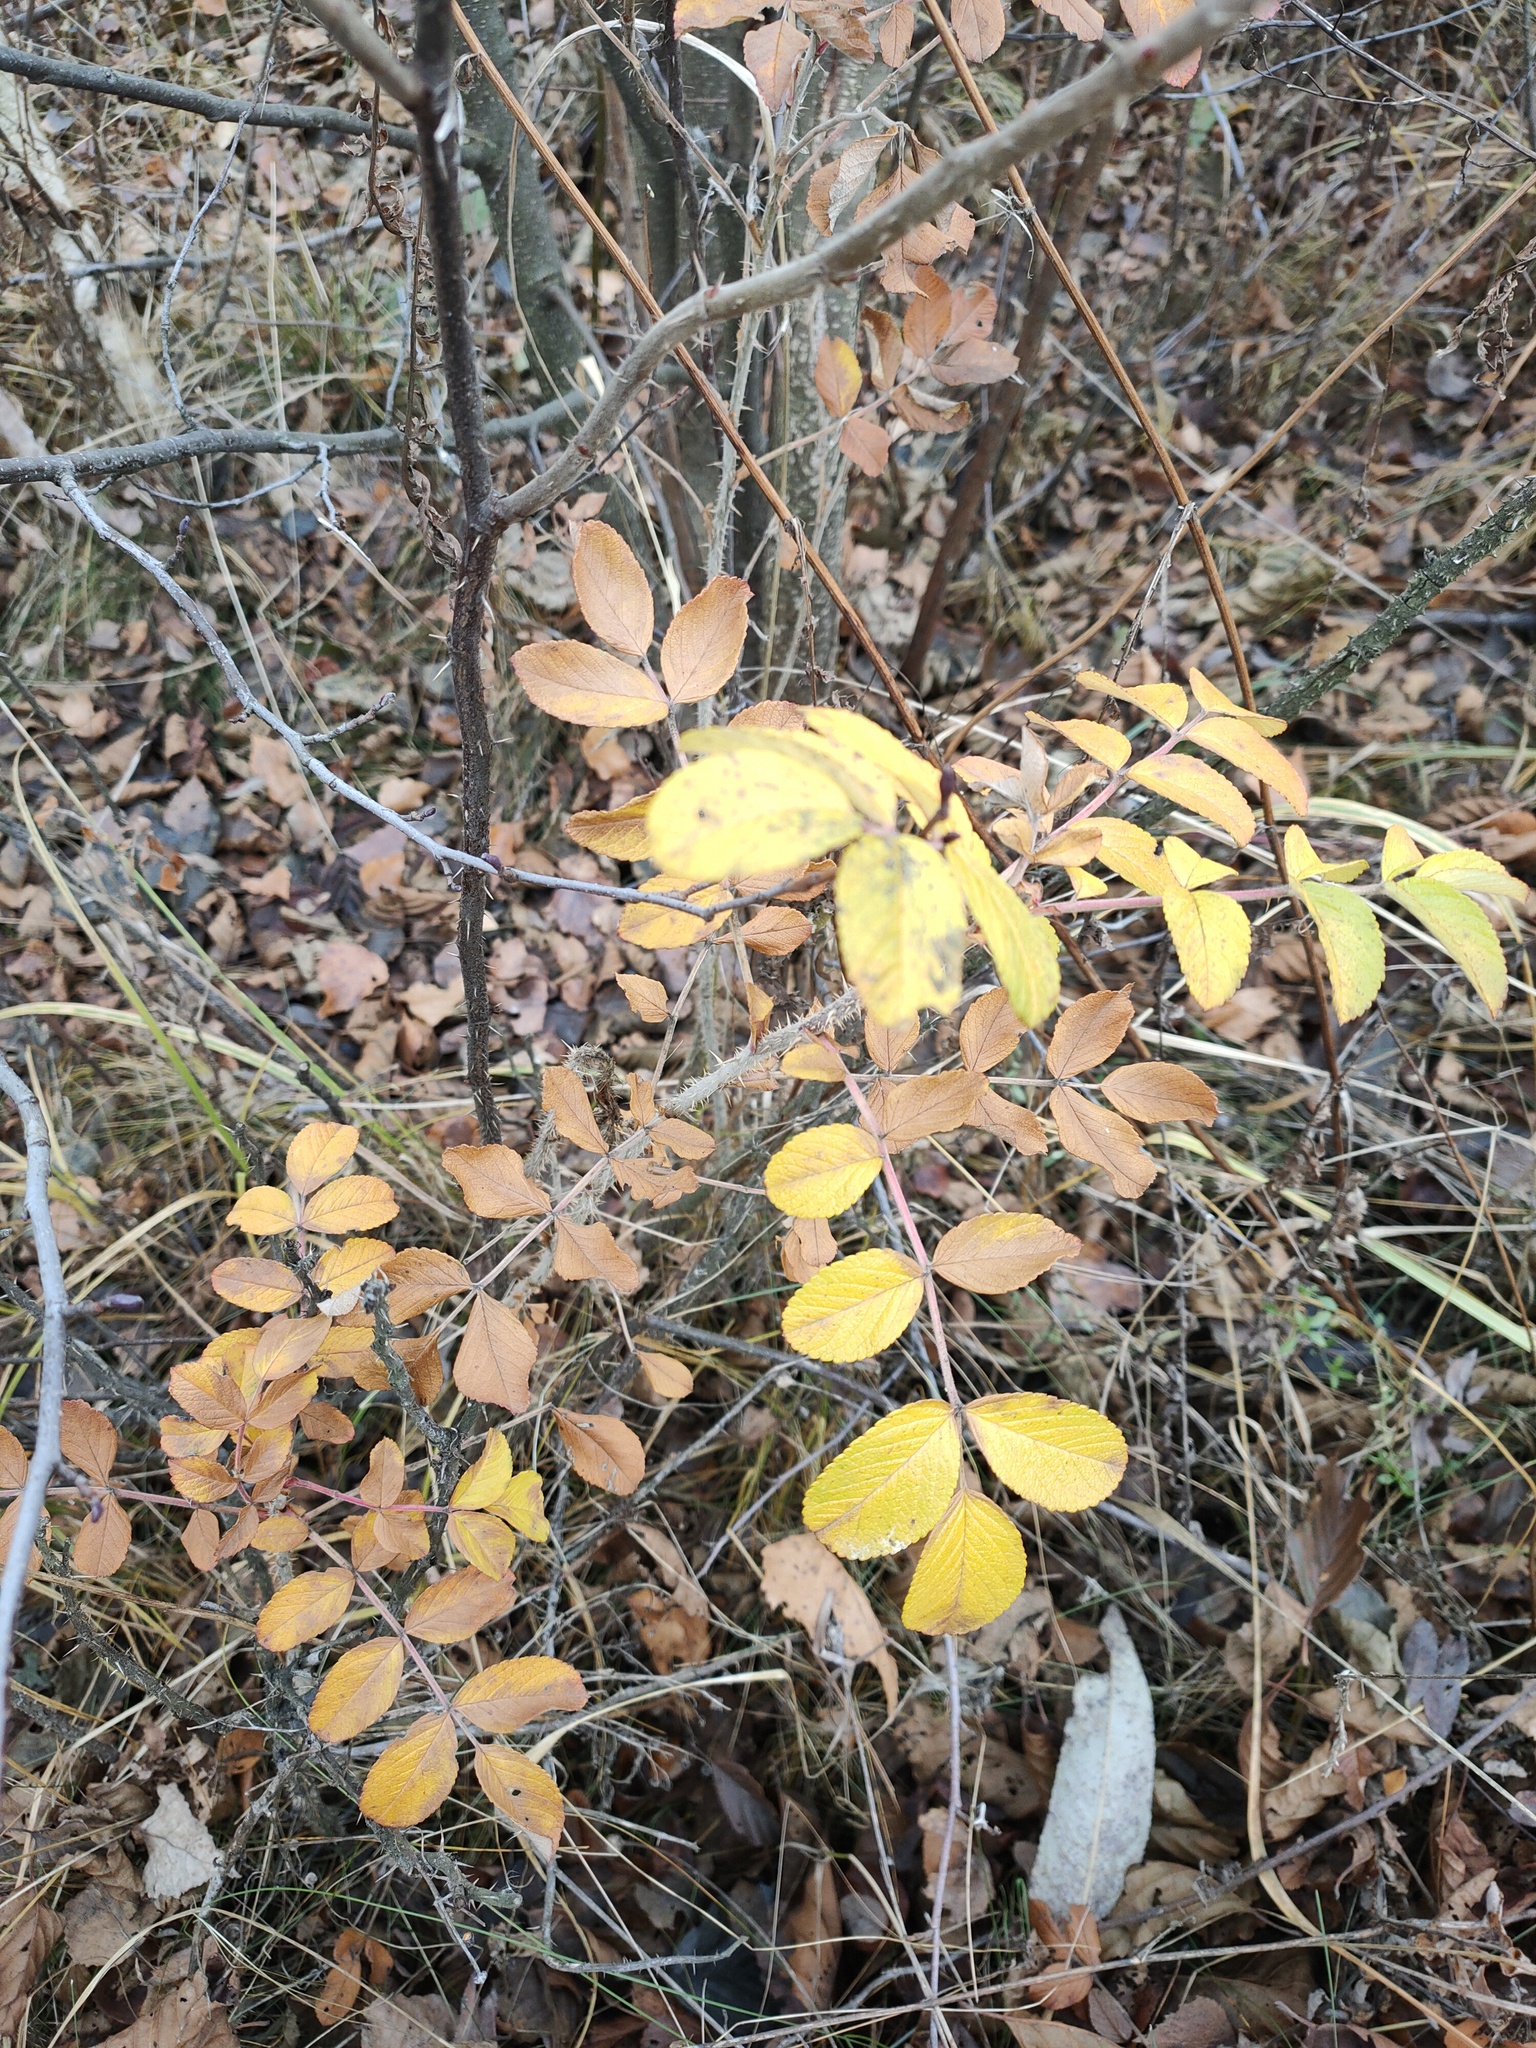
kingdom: Plantae
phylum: Tracheophyta
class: Magnoliopsida
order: Rosales
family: Rosaceae
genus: Rosa
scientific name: Rosa rugosa
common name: Japanese rose
